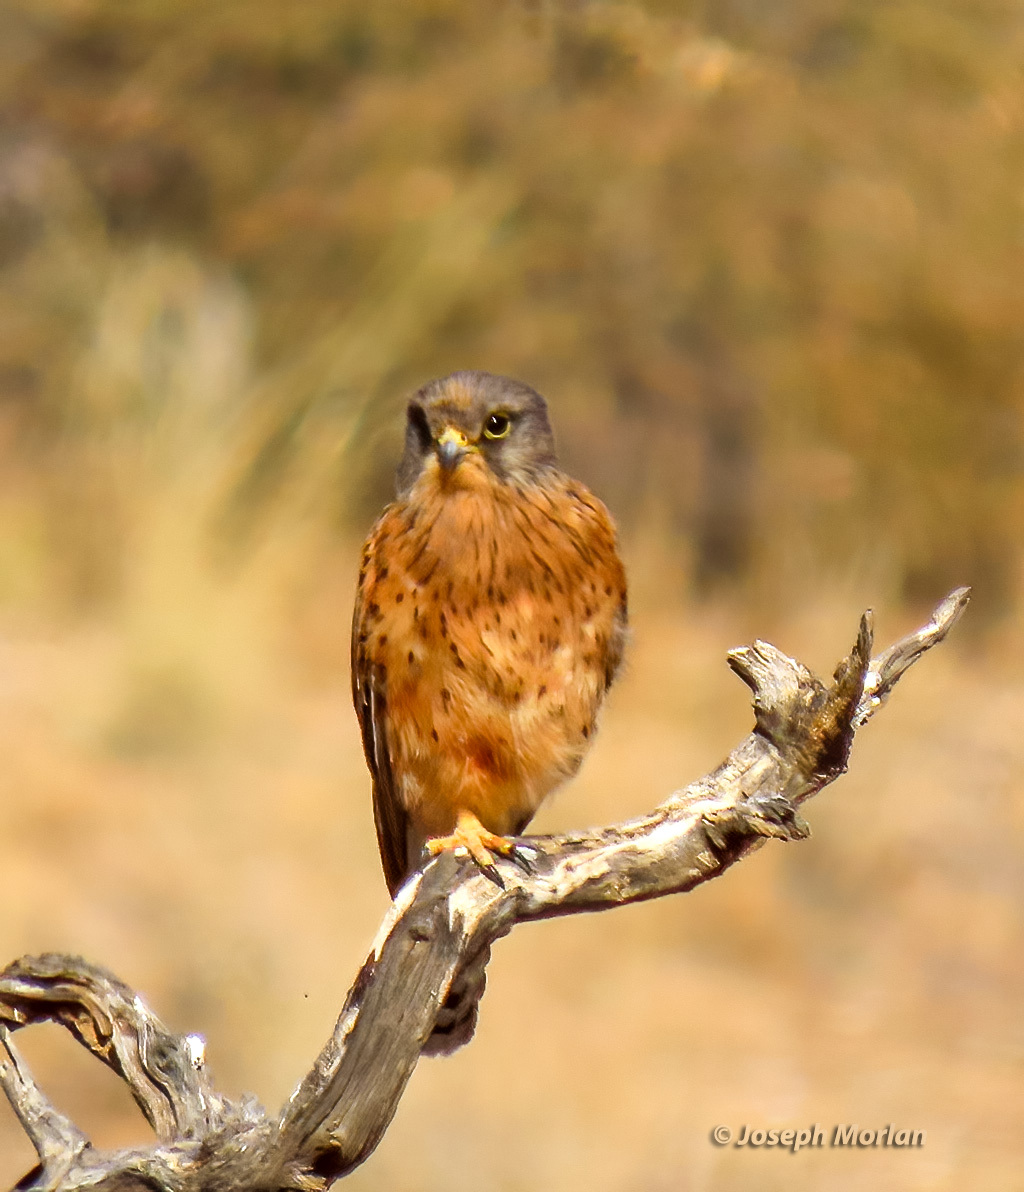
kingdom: Animalia
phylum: Chordata
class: Aves
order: Falconiformes
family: Falconidae
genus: Falco
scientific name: Falco rupicolus
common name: Rock kestrel
